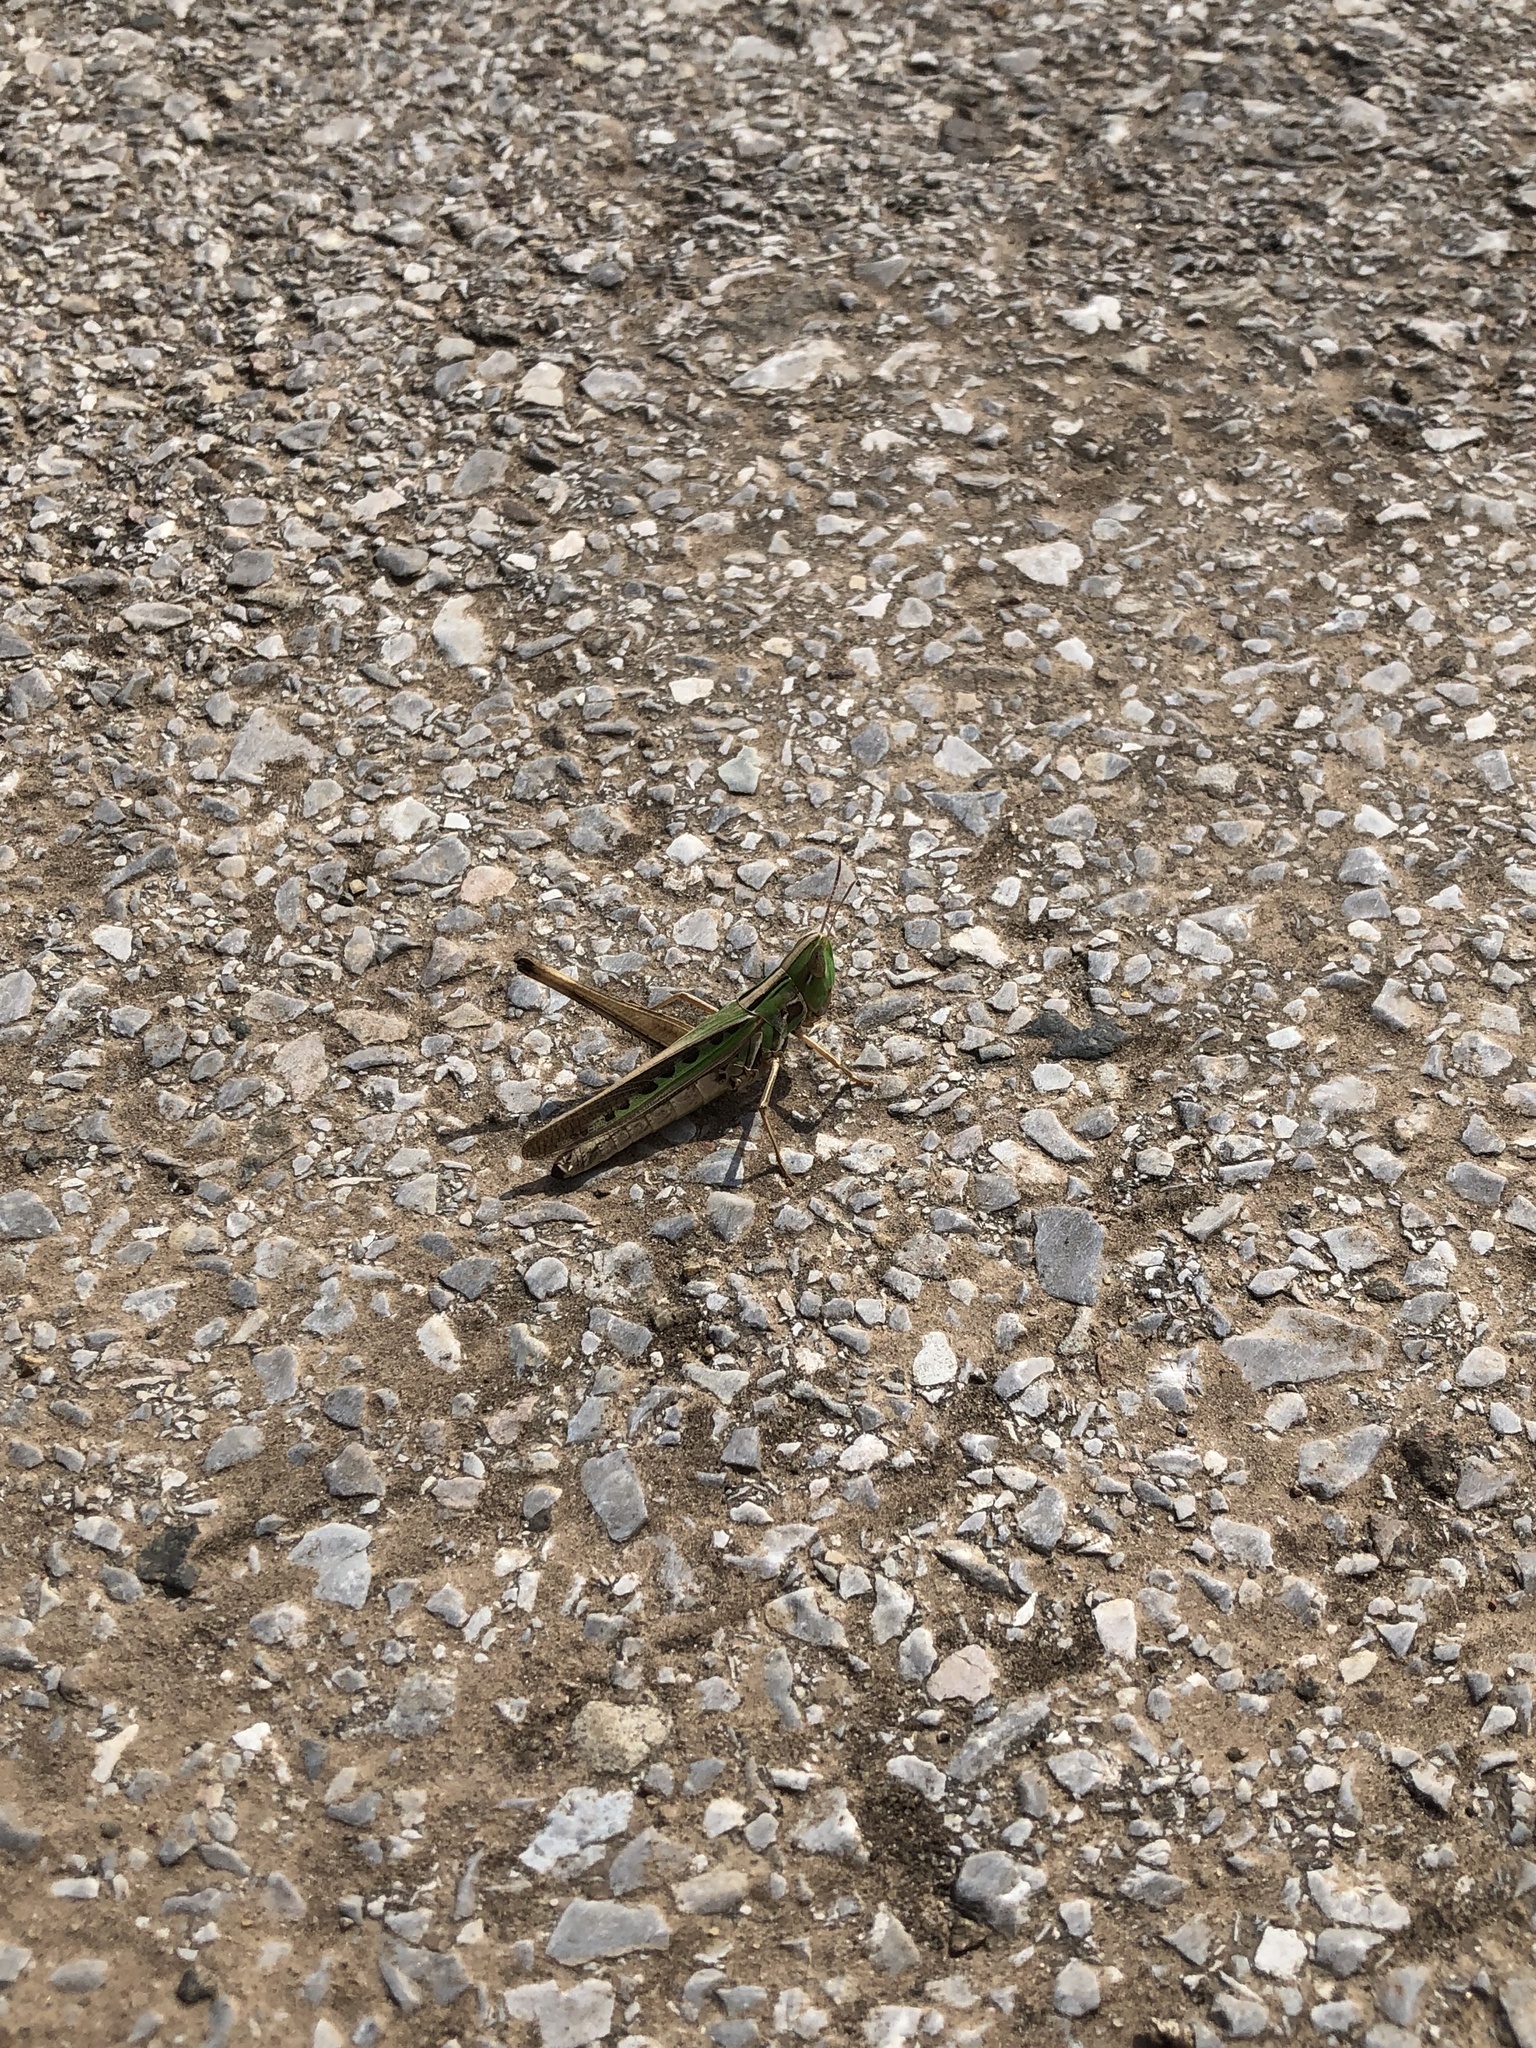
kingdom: Animalia
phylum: Arthropoda
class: Insecta
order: Orthoptera
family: Acrididae
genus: Syrbula
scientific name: Syrbula admirabilis
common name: Handsome grasshopper
